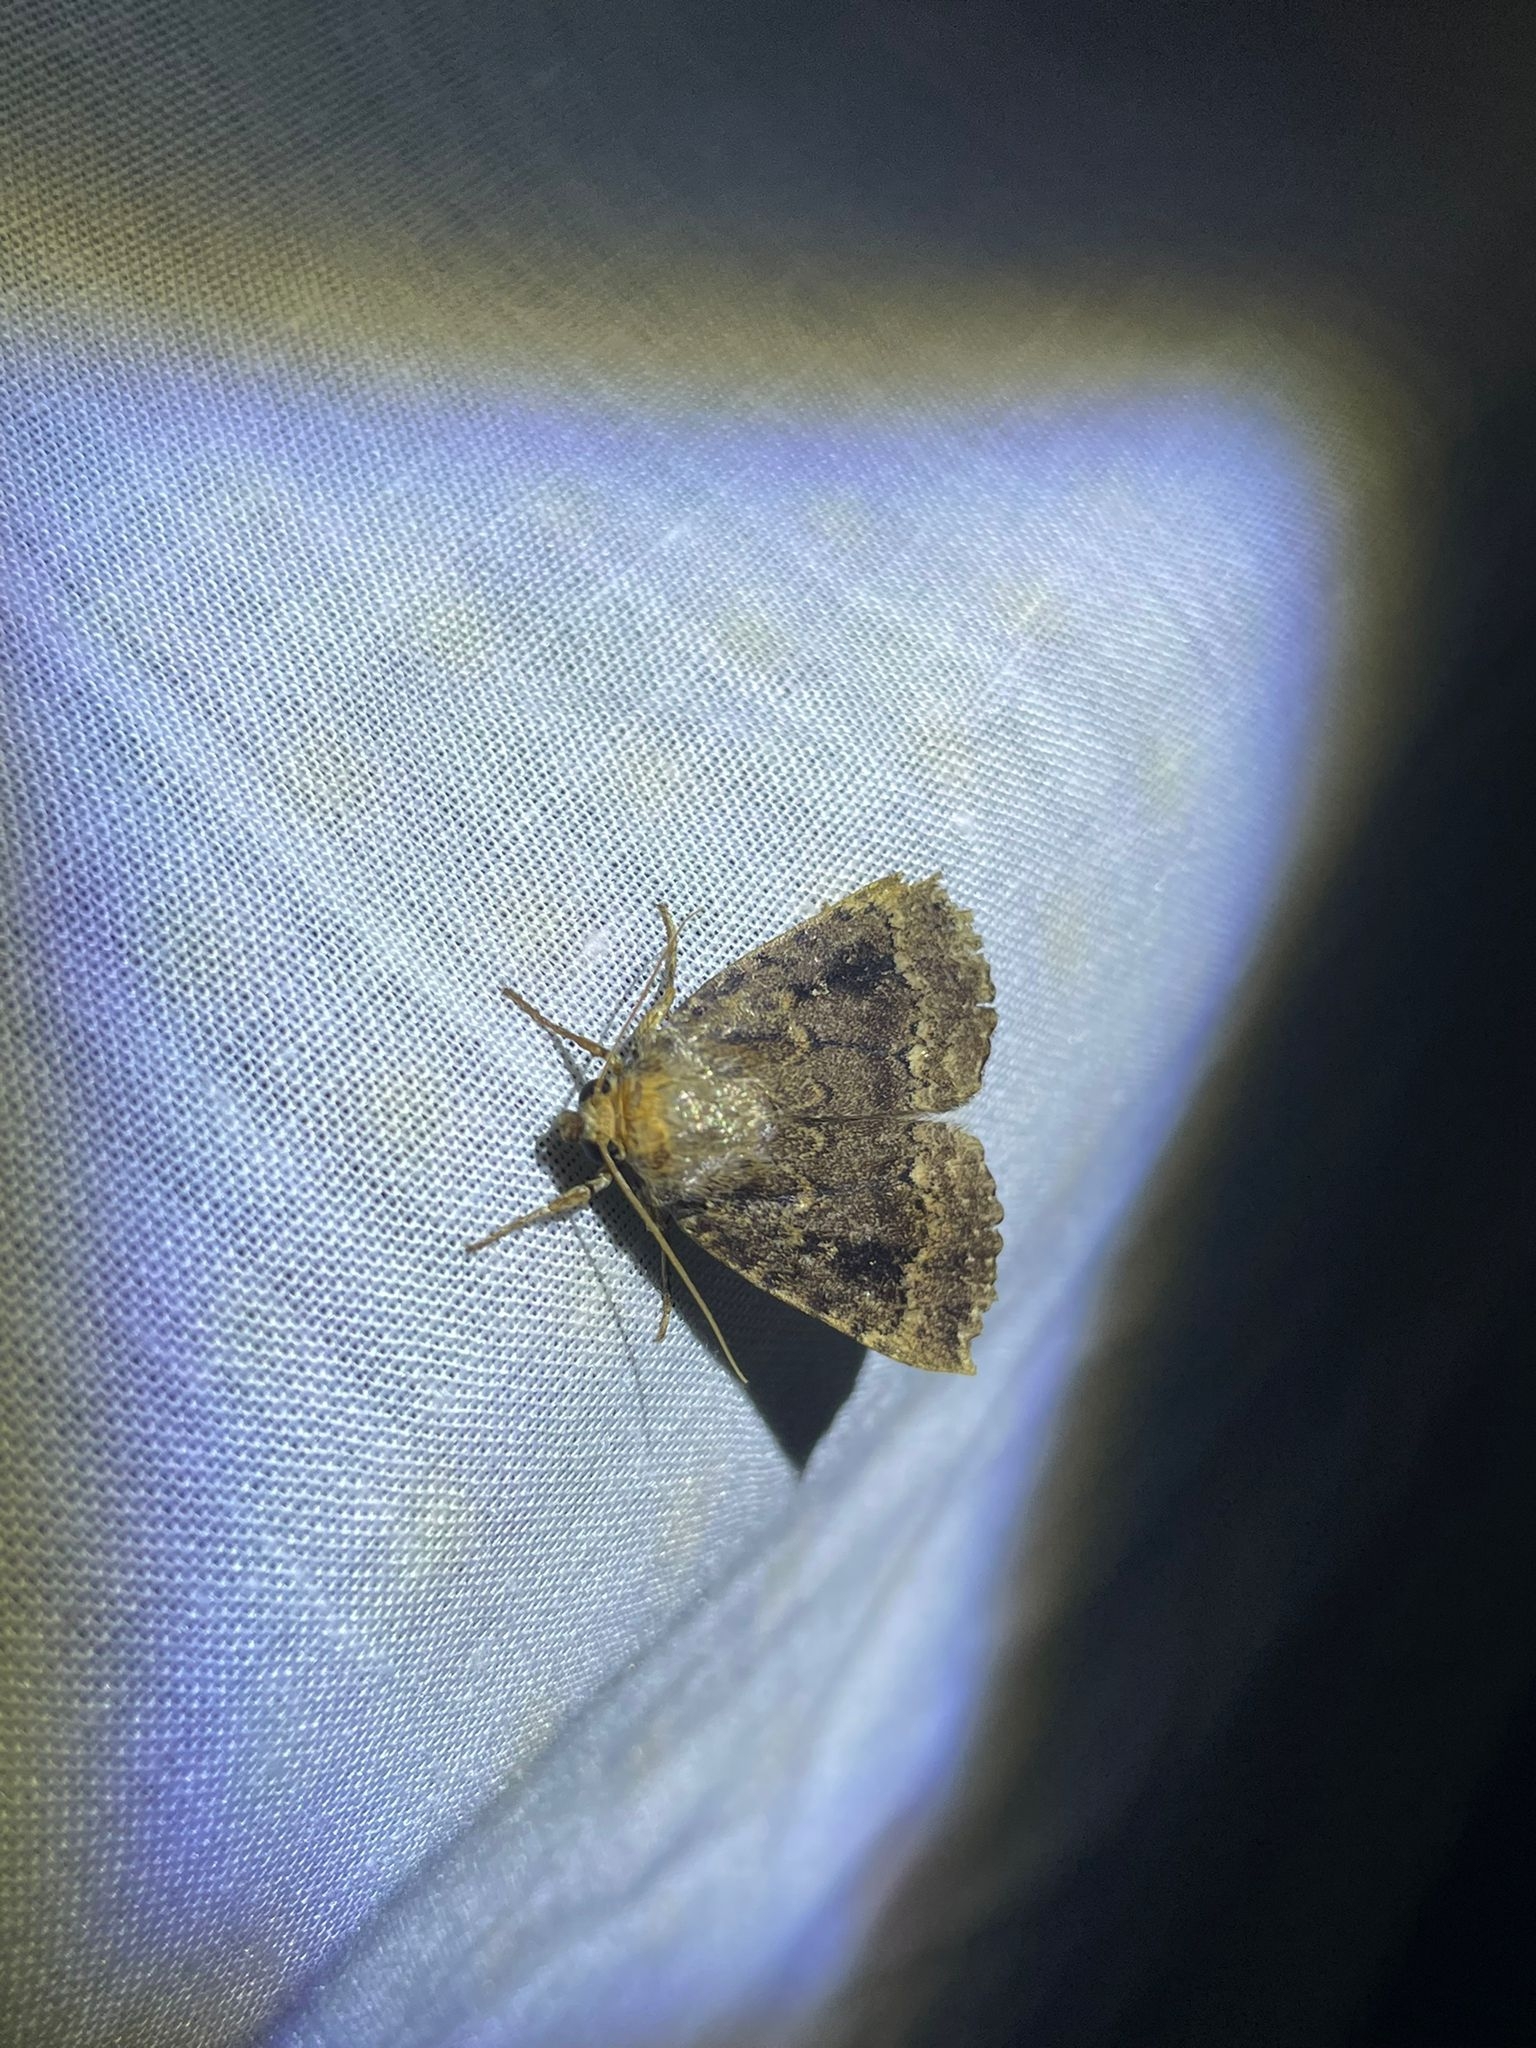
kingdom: Animalia
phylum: Arthropoda
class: Insecta
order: Lepidoptera
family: Noctuidae
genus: Amphipyra
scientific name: Amphipyra pyramidea
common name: Copper underwing
